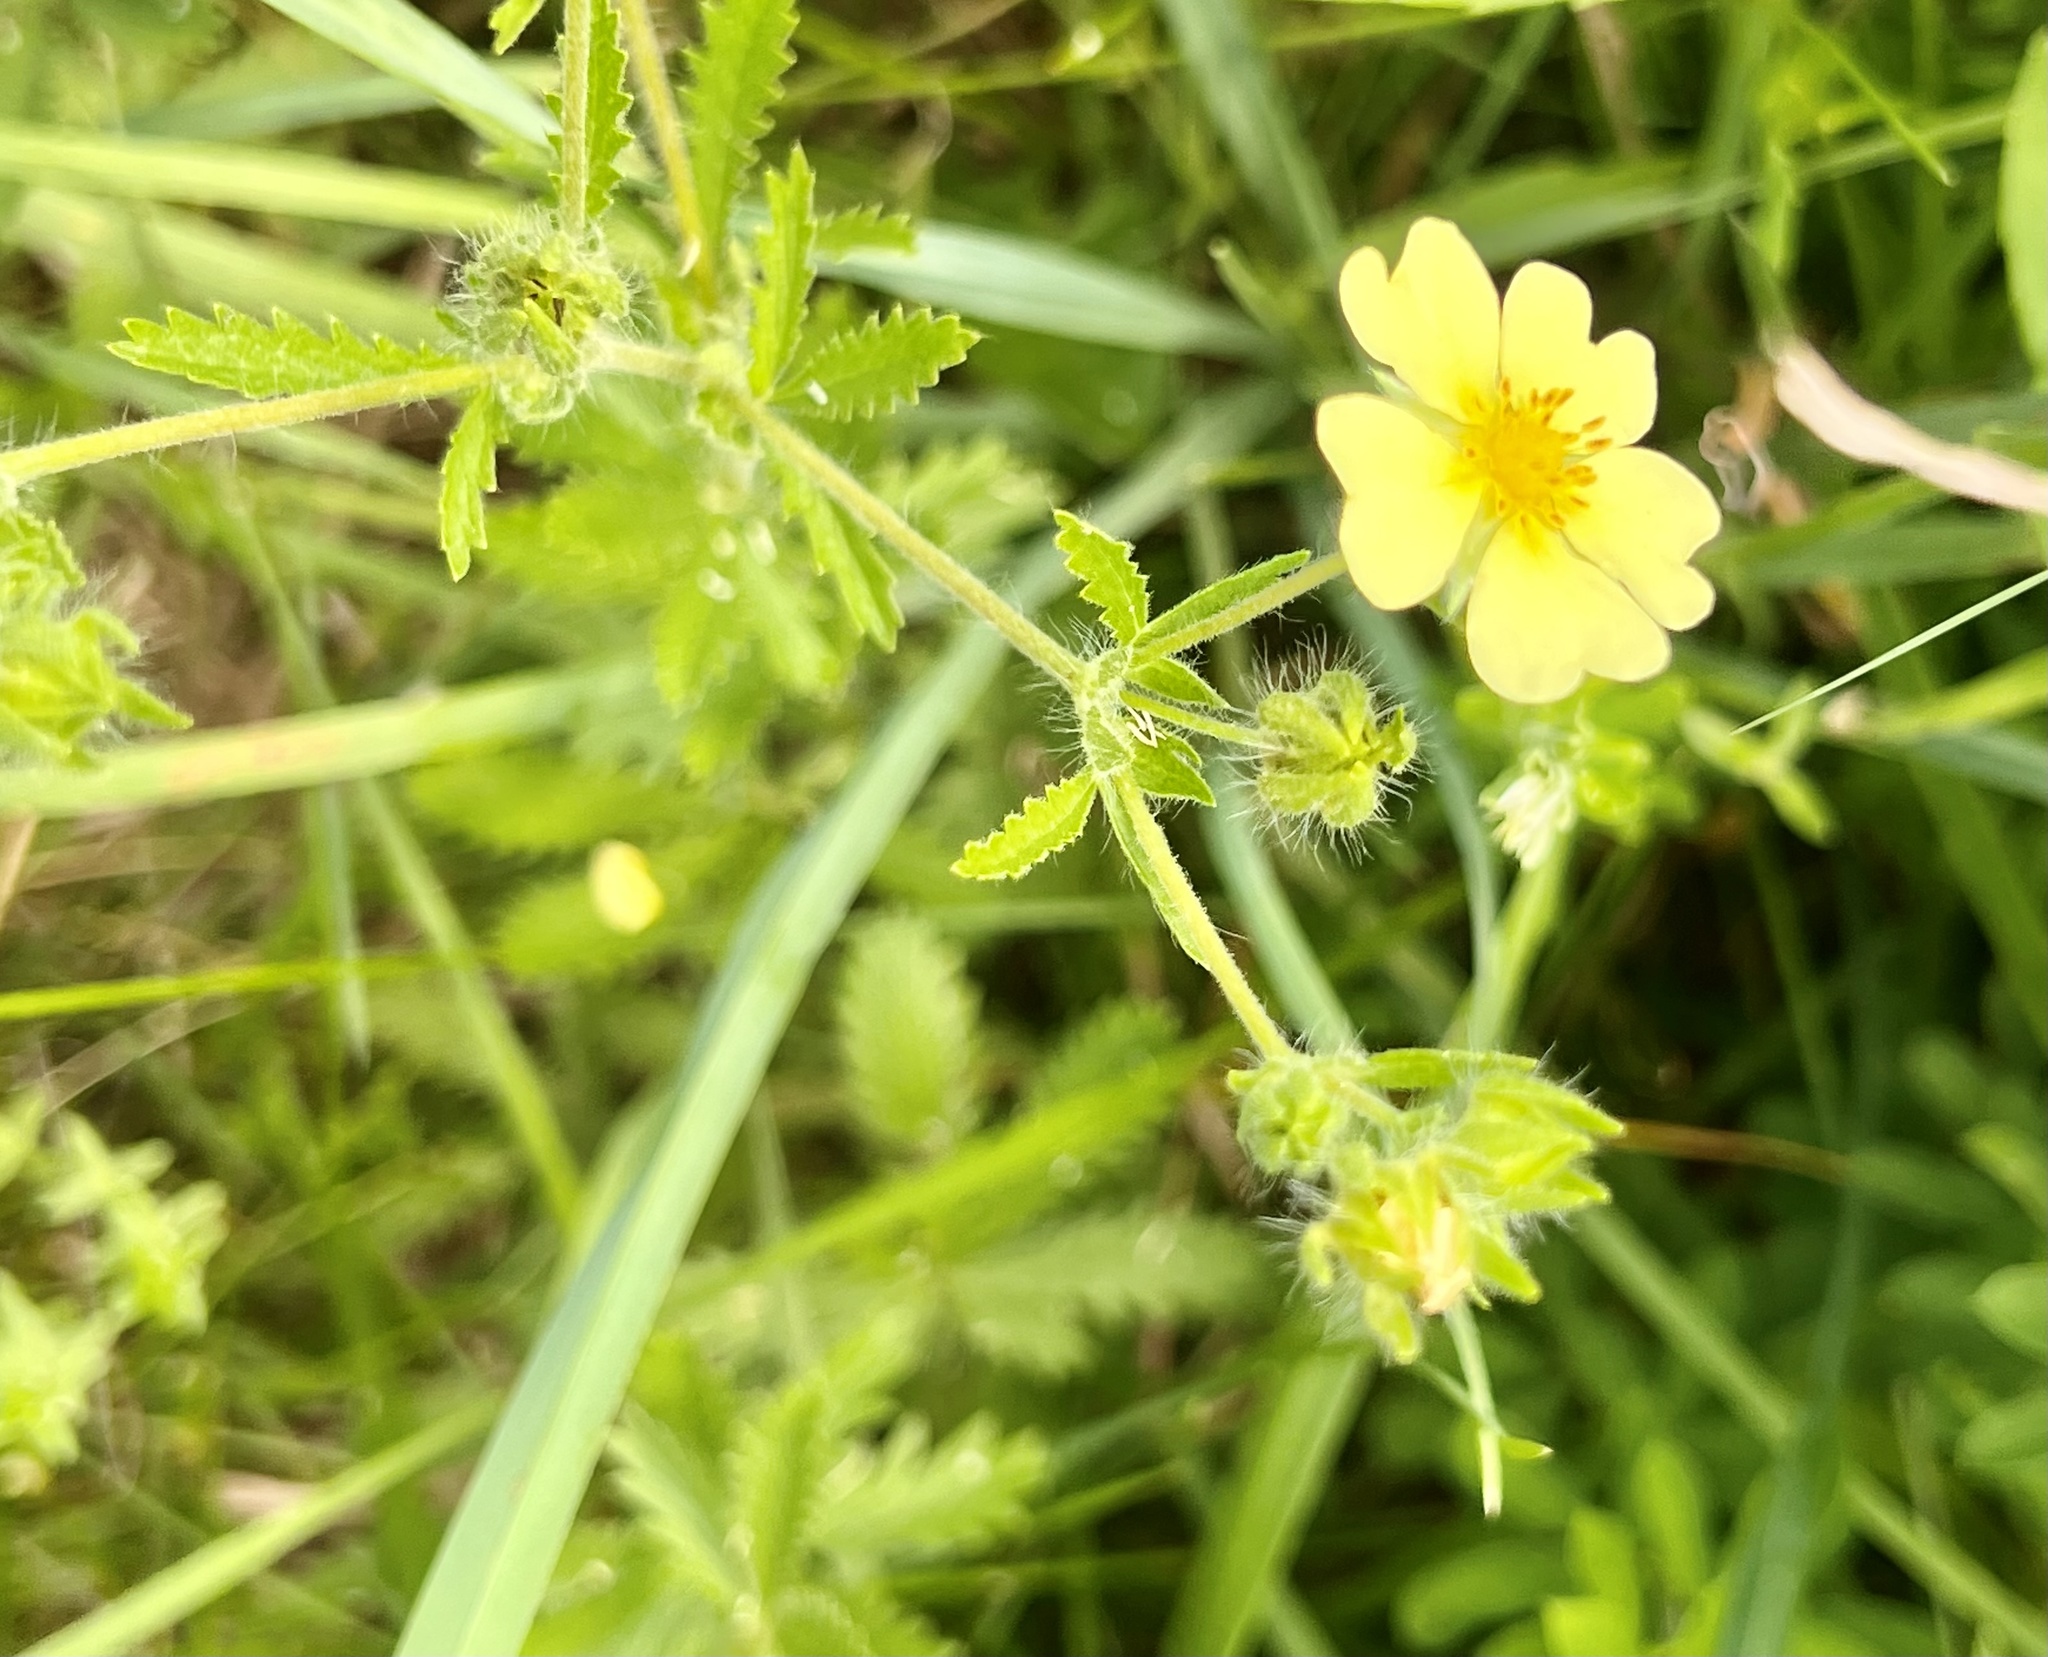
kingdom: Plantae
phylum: Tracheophyta
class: Magnoliopsida
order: Rosales
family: Rosaceae
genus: Potentilla
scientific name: Potentilla recta
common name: Sulphur cinquefoil
